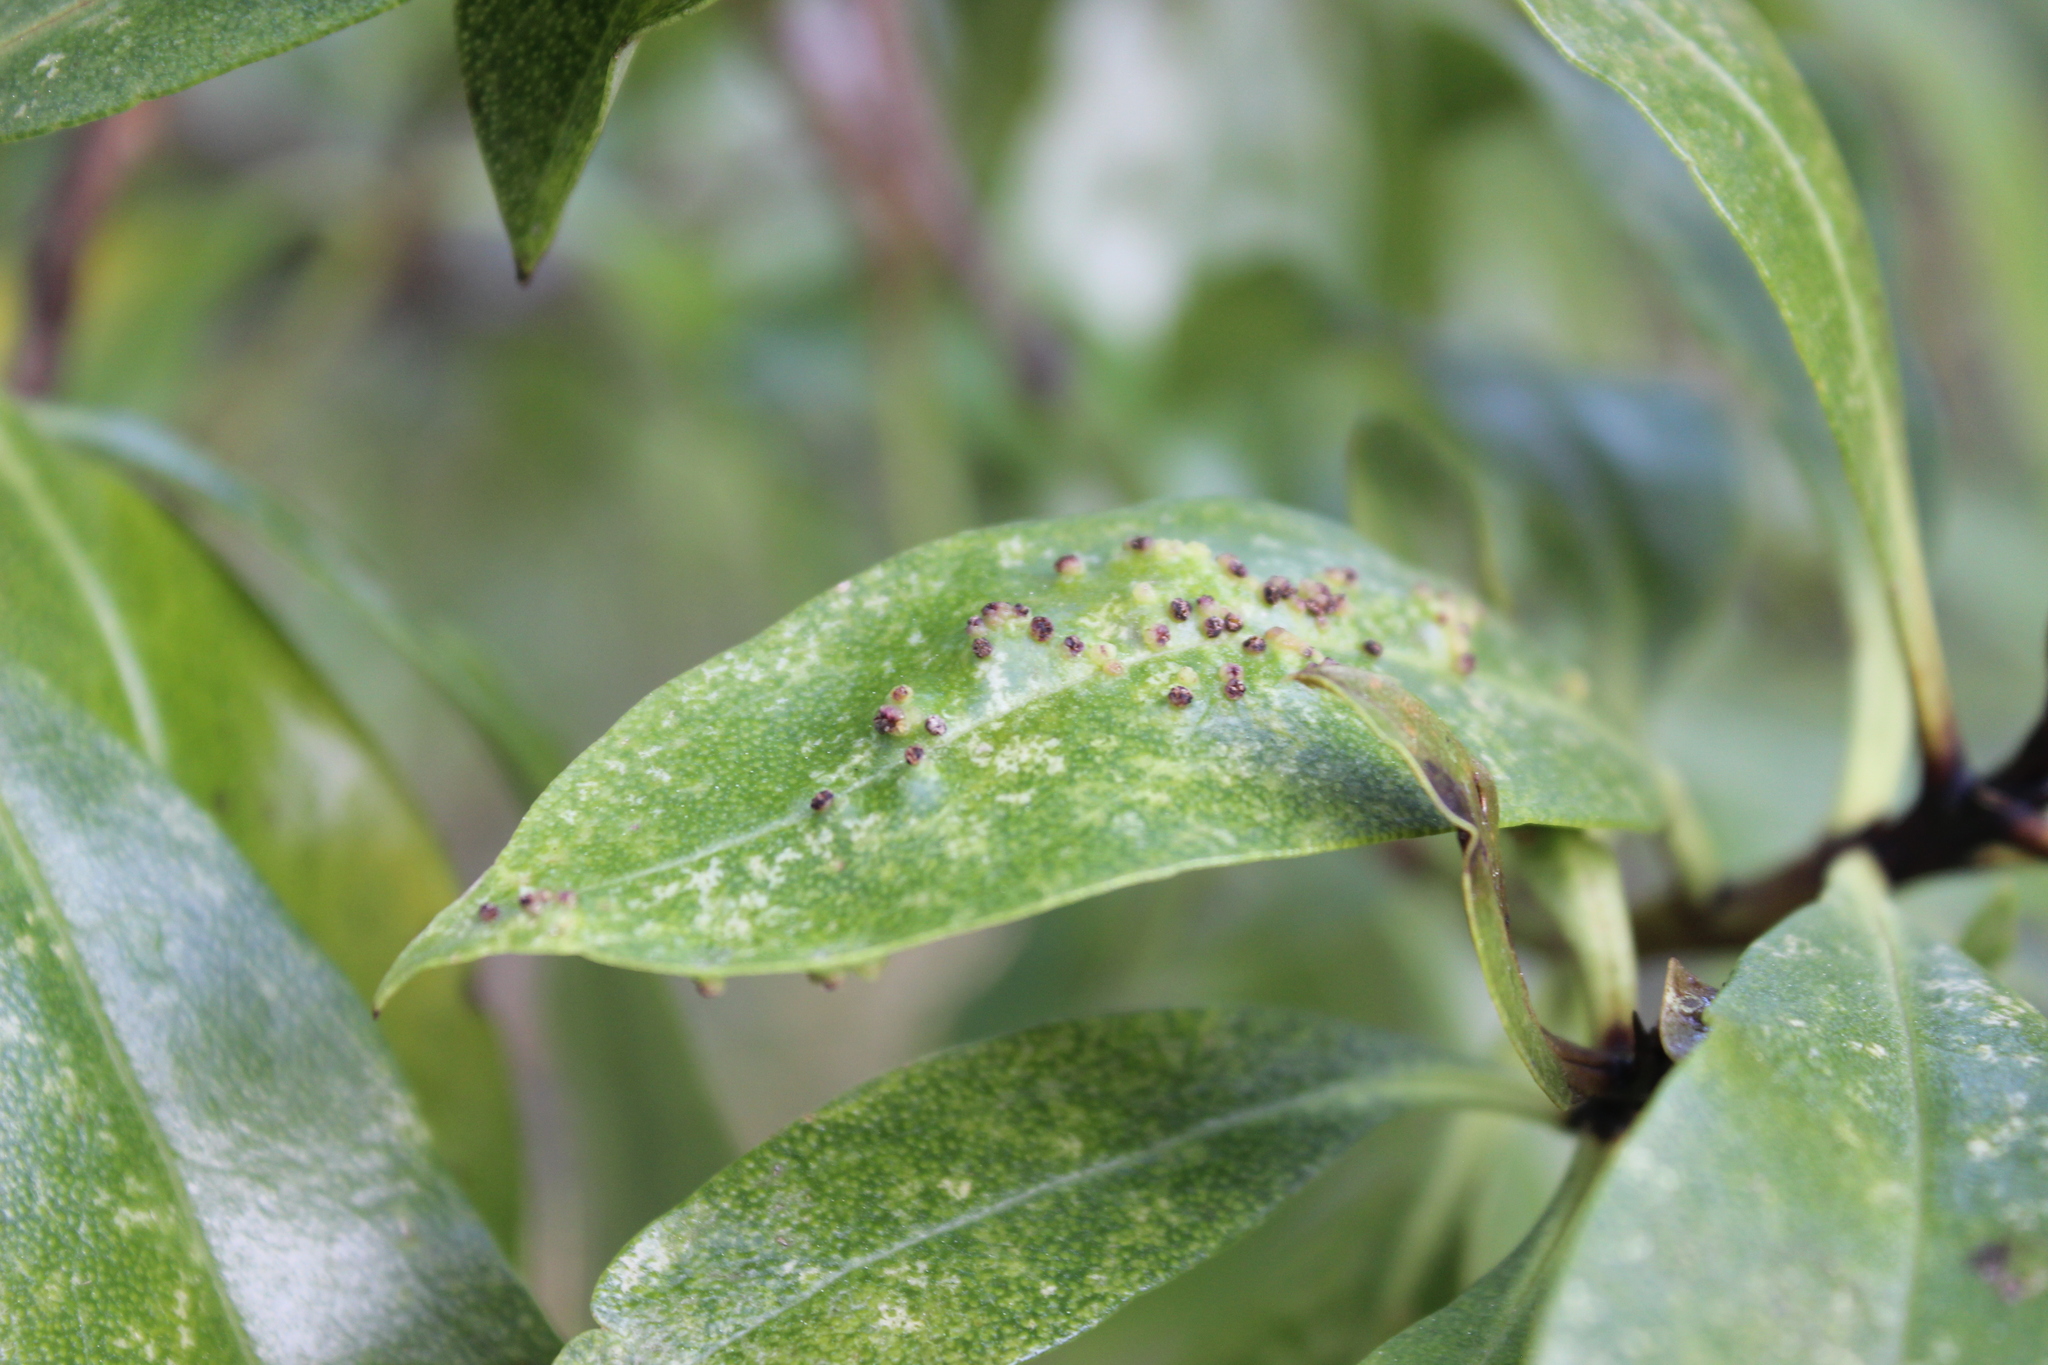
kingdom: Plantae
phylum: Tracheophyta
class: Magnoliopsida
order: Lamiales
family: Scrophulariaceae
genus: Myoporum
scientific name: Myoporum laetum
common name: Ngaio tree
